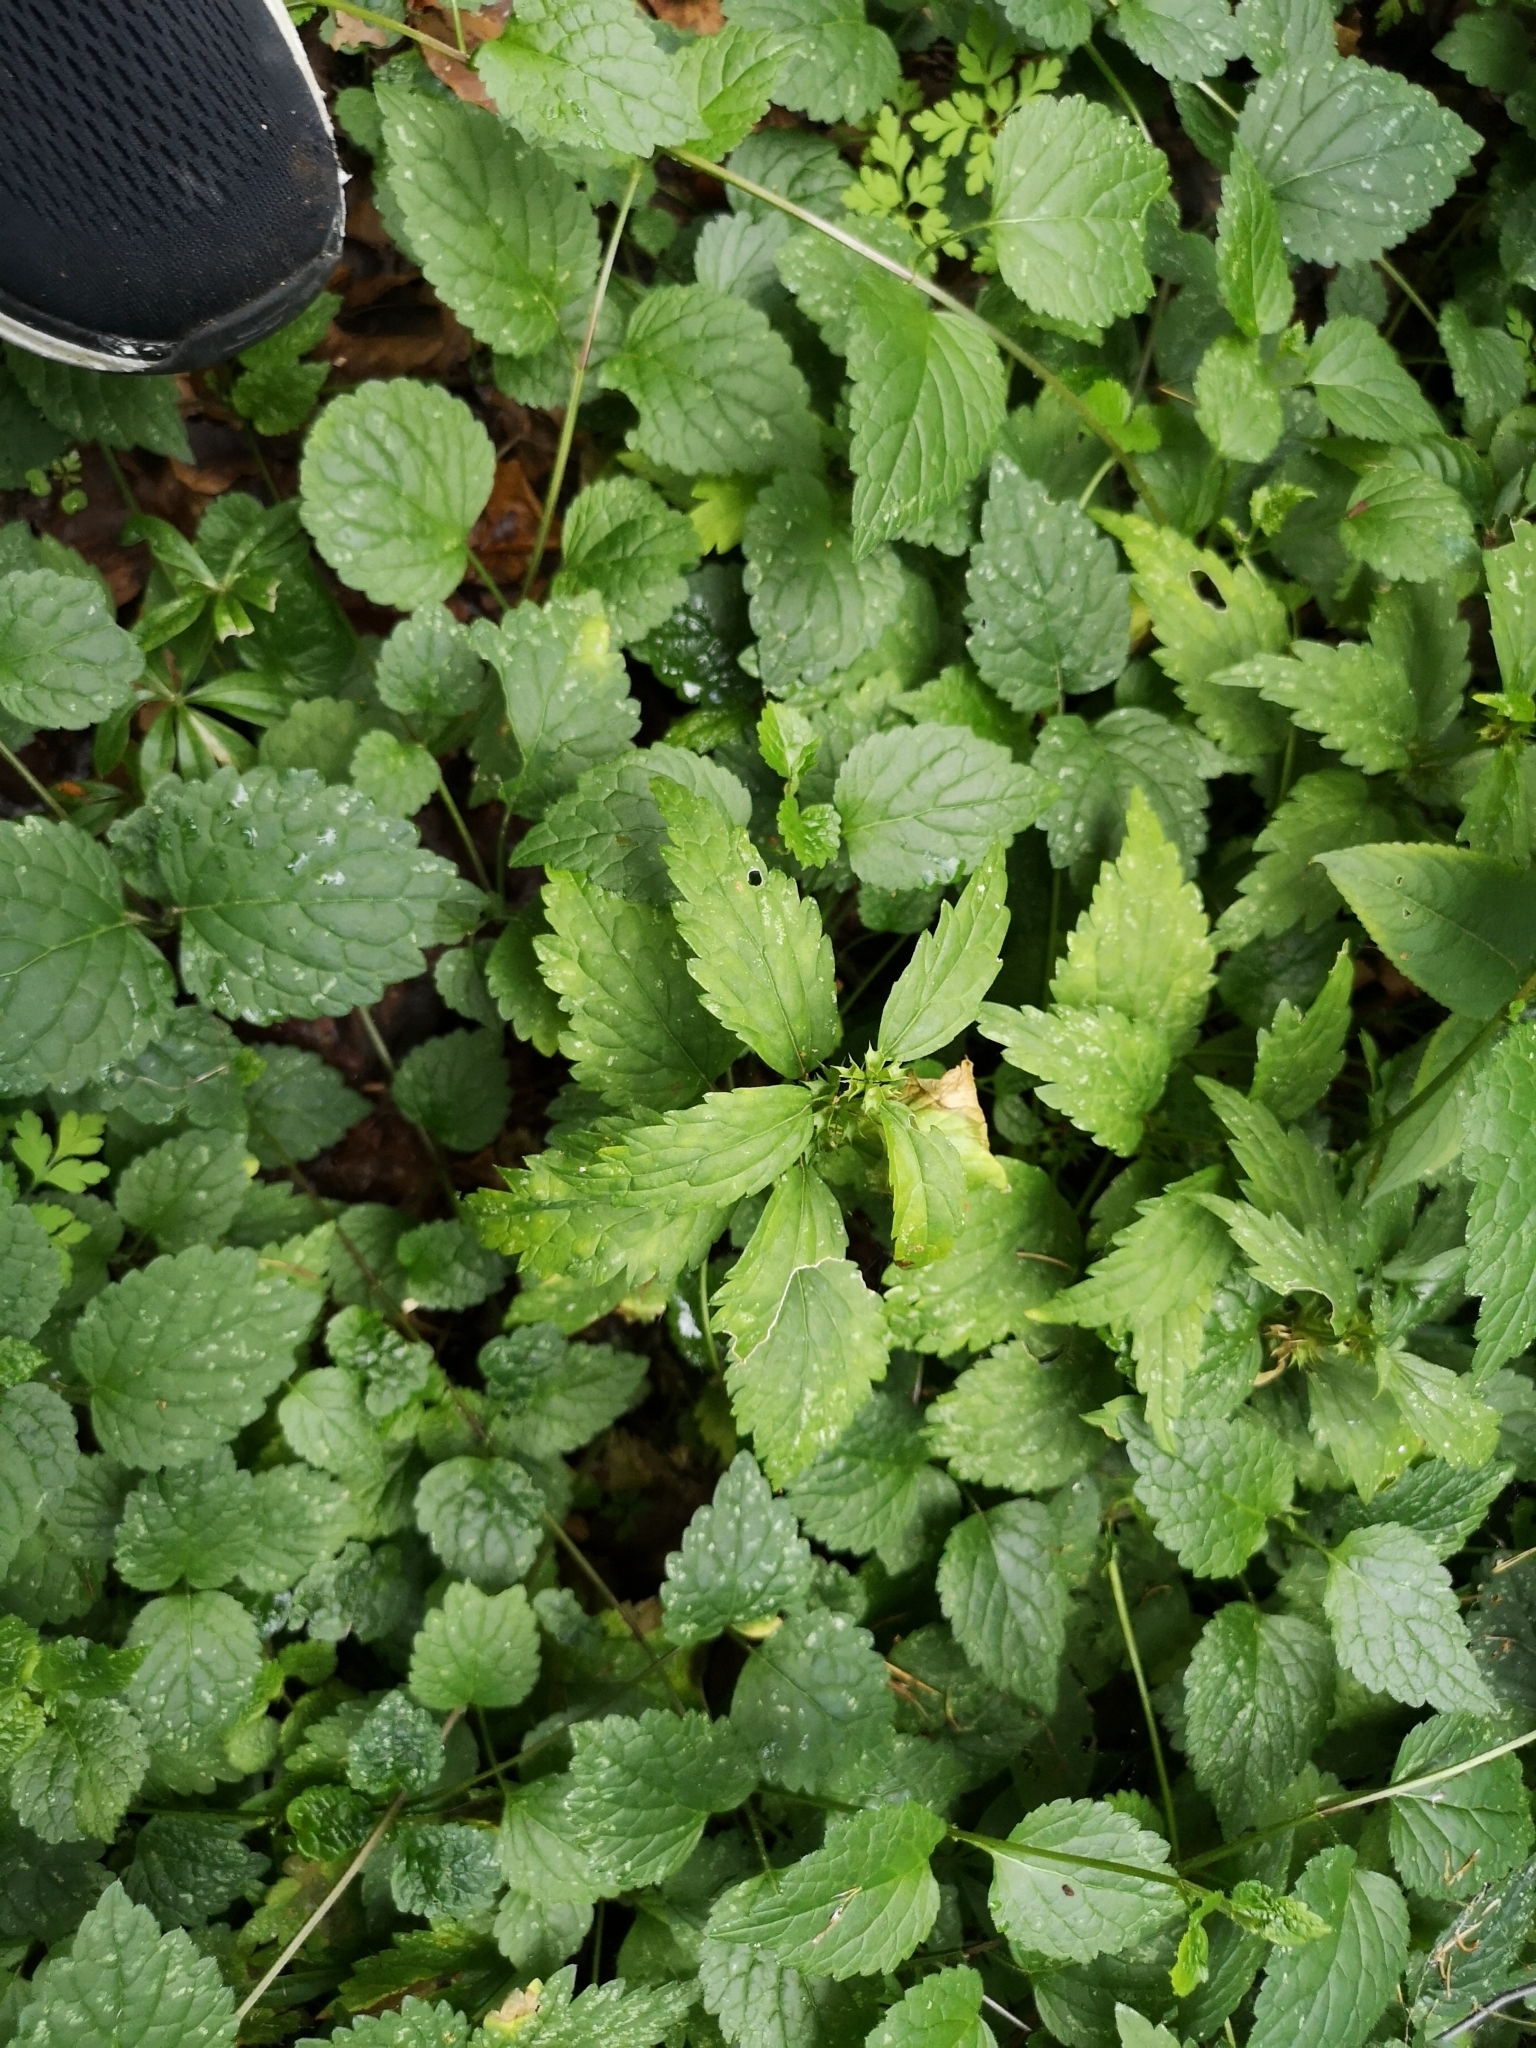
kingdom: Plantae
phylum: Tracheophyta
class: Magnoliopsida
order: Lamiales
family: Lamiaceae
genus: Lamium
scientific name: Lamium galeobdolon
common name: Yellow archangel
